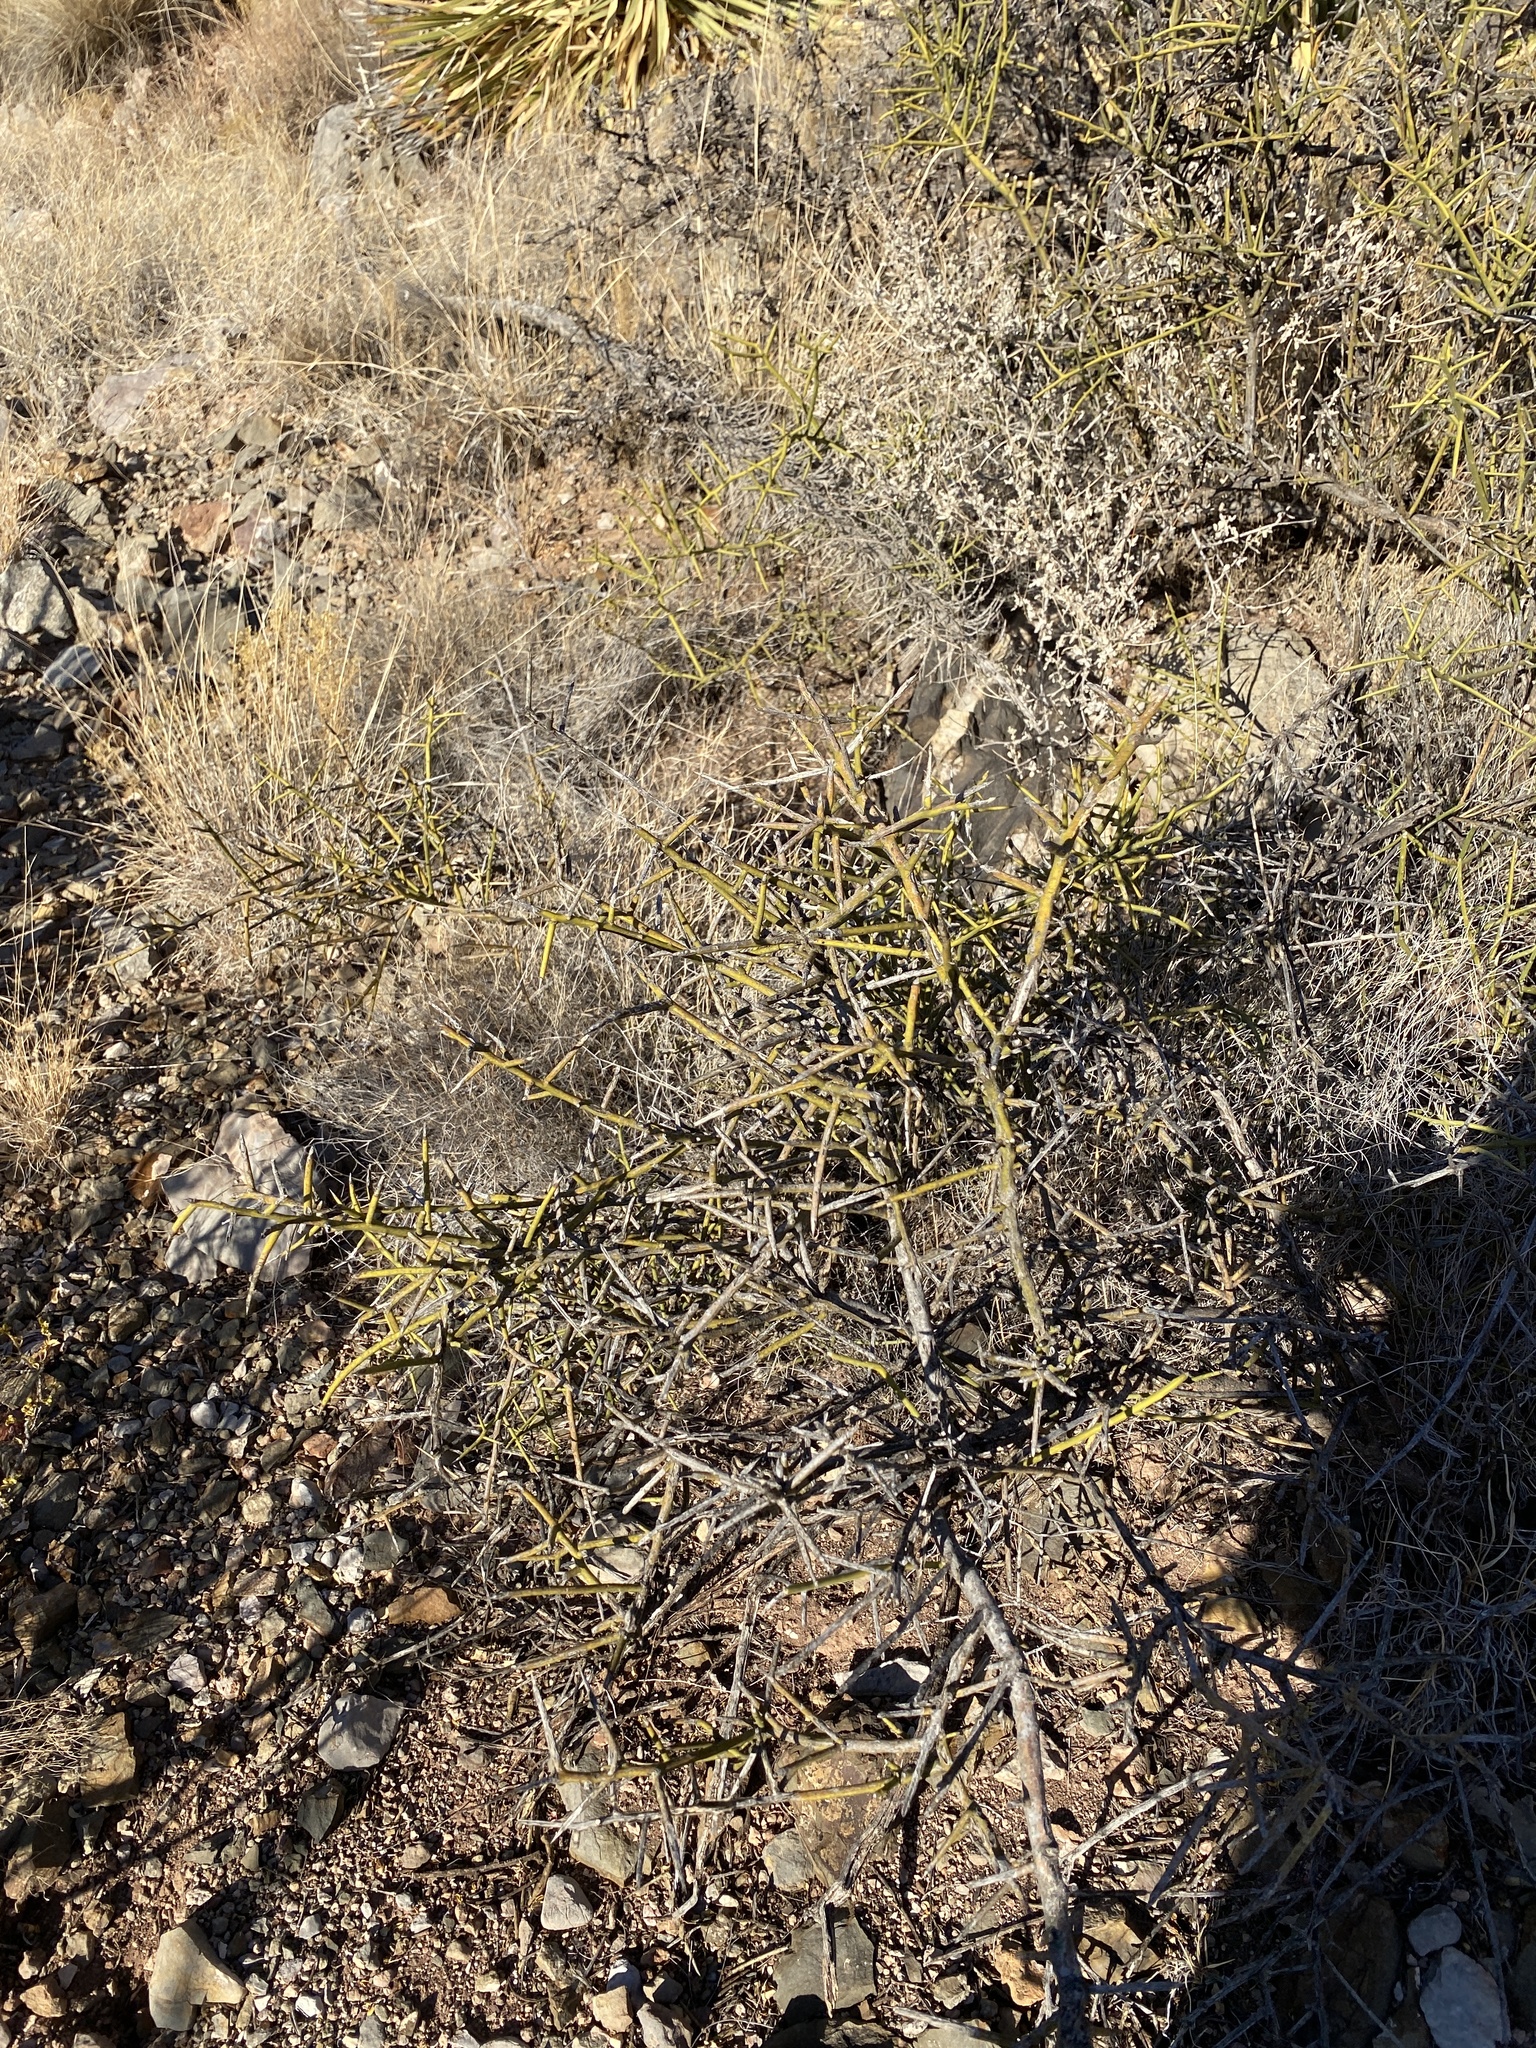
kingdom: Plantae
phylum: Tracheophyta
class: Magnoliopsida
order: Brassicales
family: Koeberliniaceae
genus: Koeberlinia
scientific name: Koeberlinia spinosa
